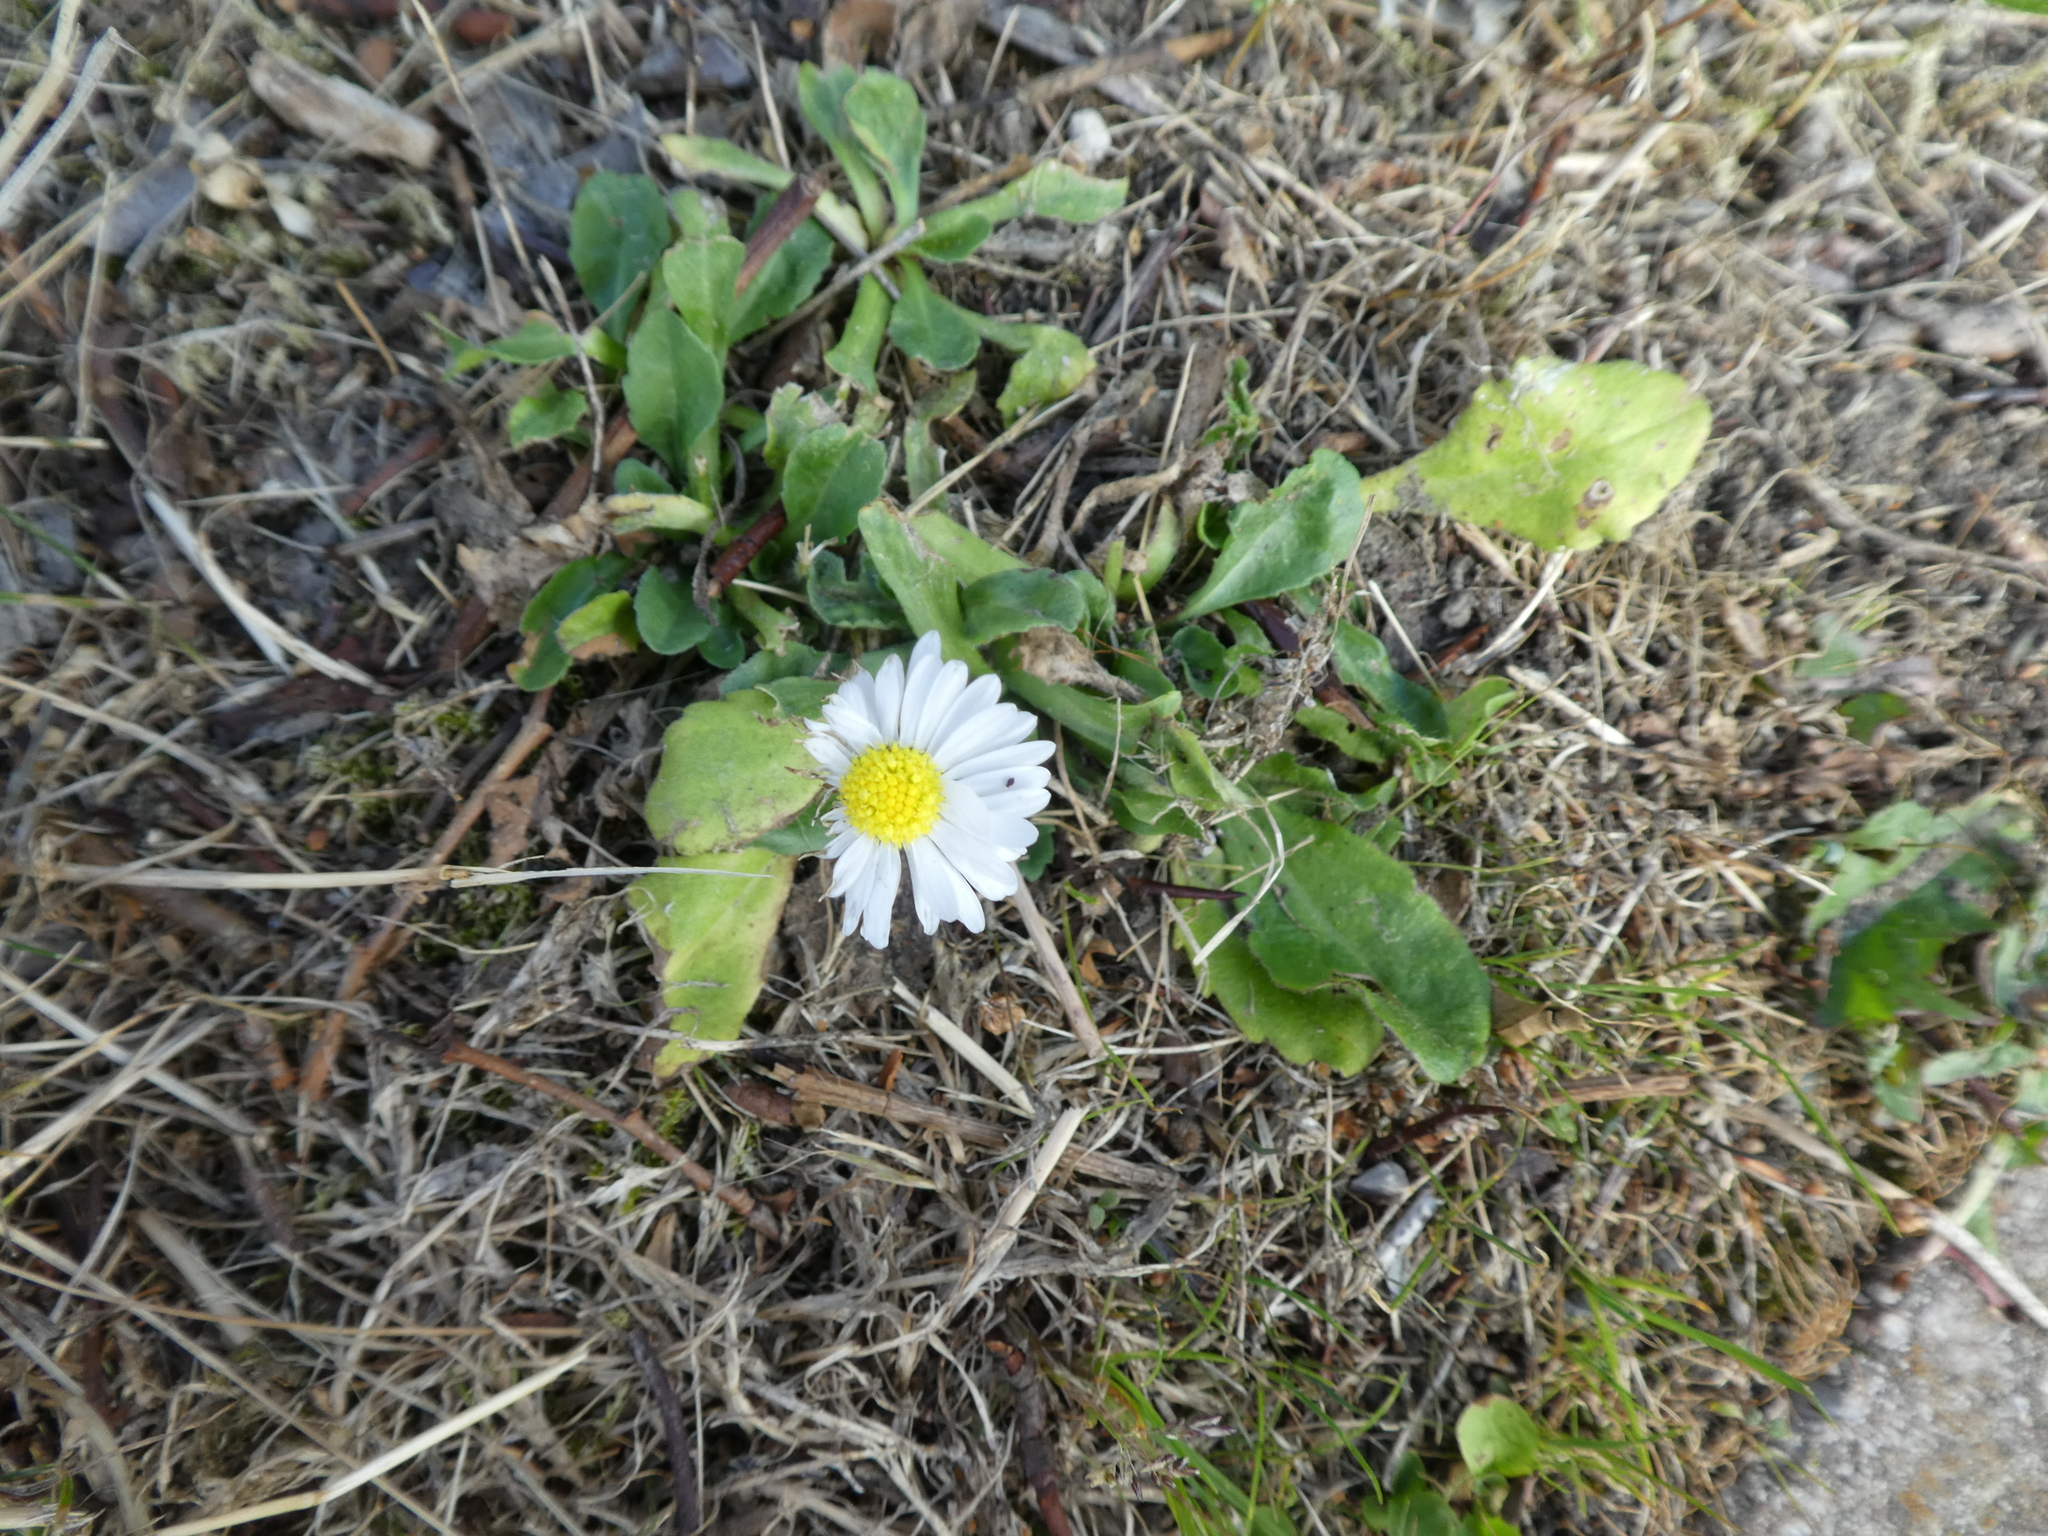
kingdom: Plantae
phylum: Tracheophyta
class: Magnoliopsida
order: Asterales
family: Asteraceae
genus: Bellis
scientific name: Bellis perennis
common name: Lawndaisy
